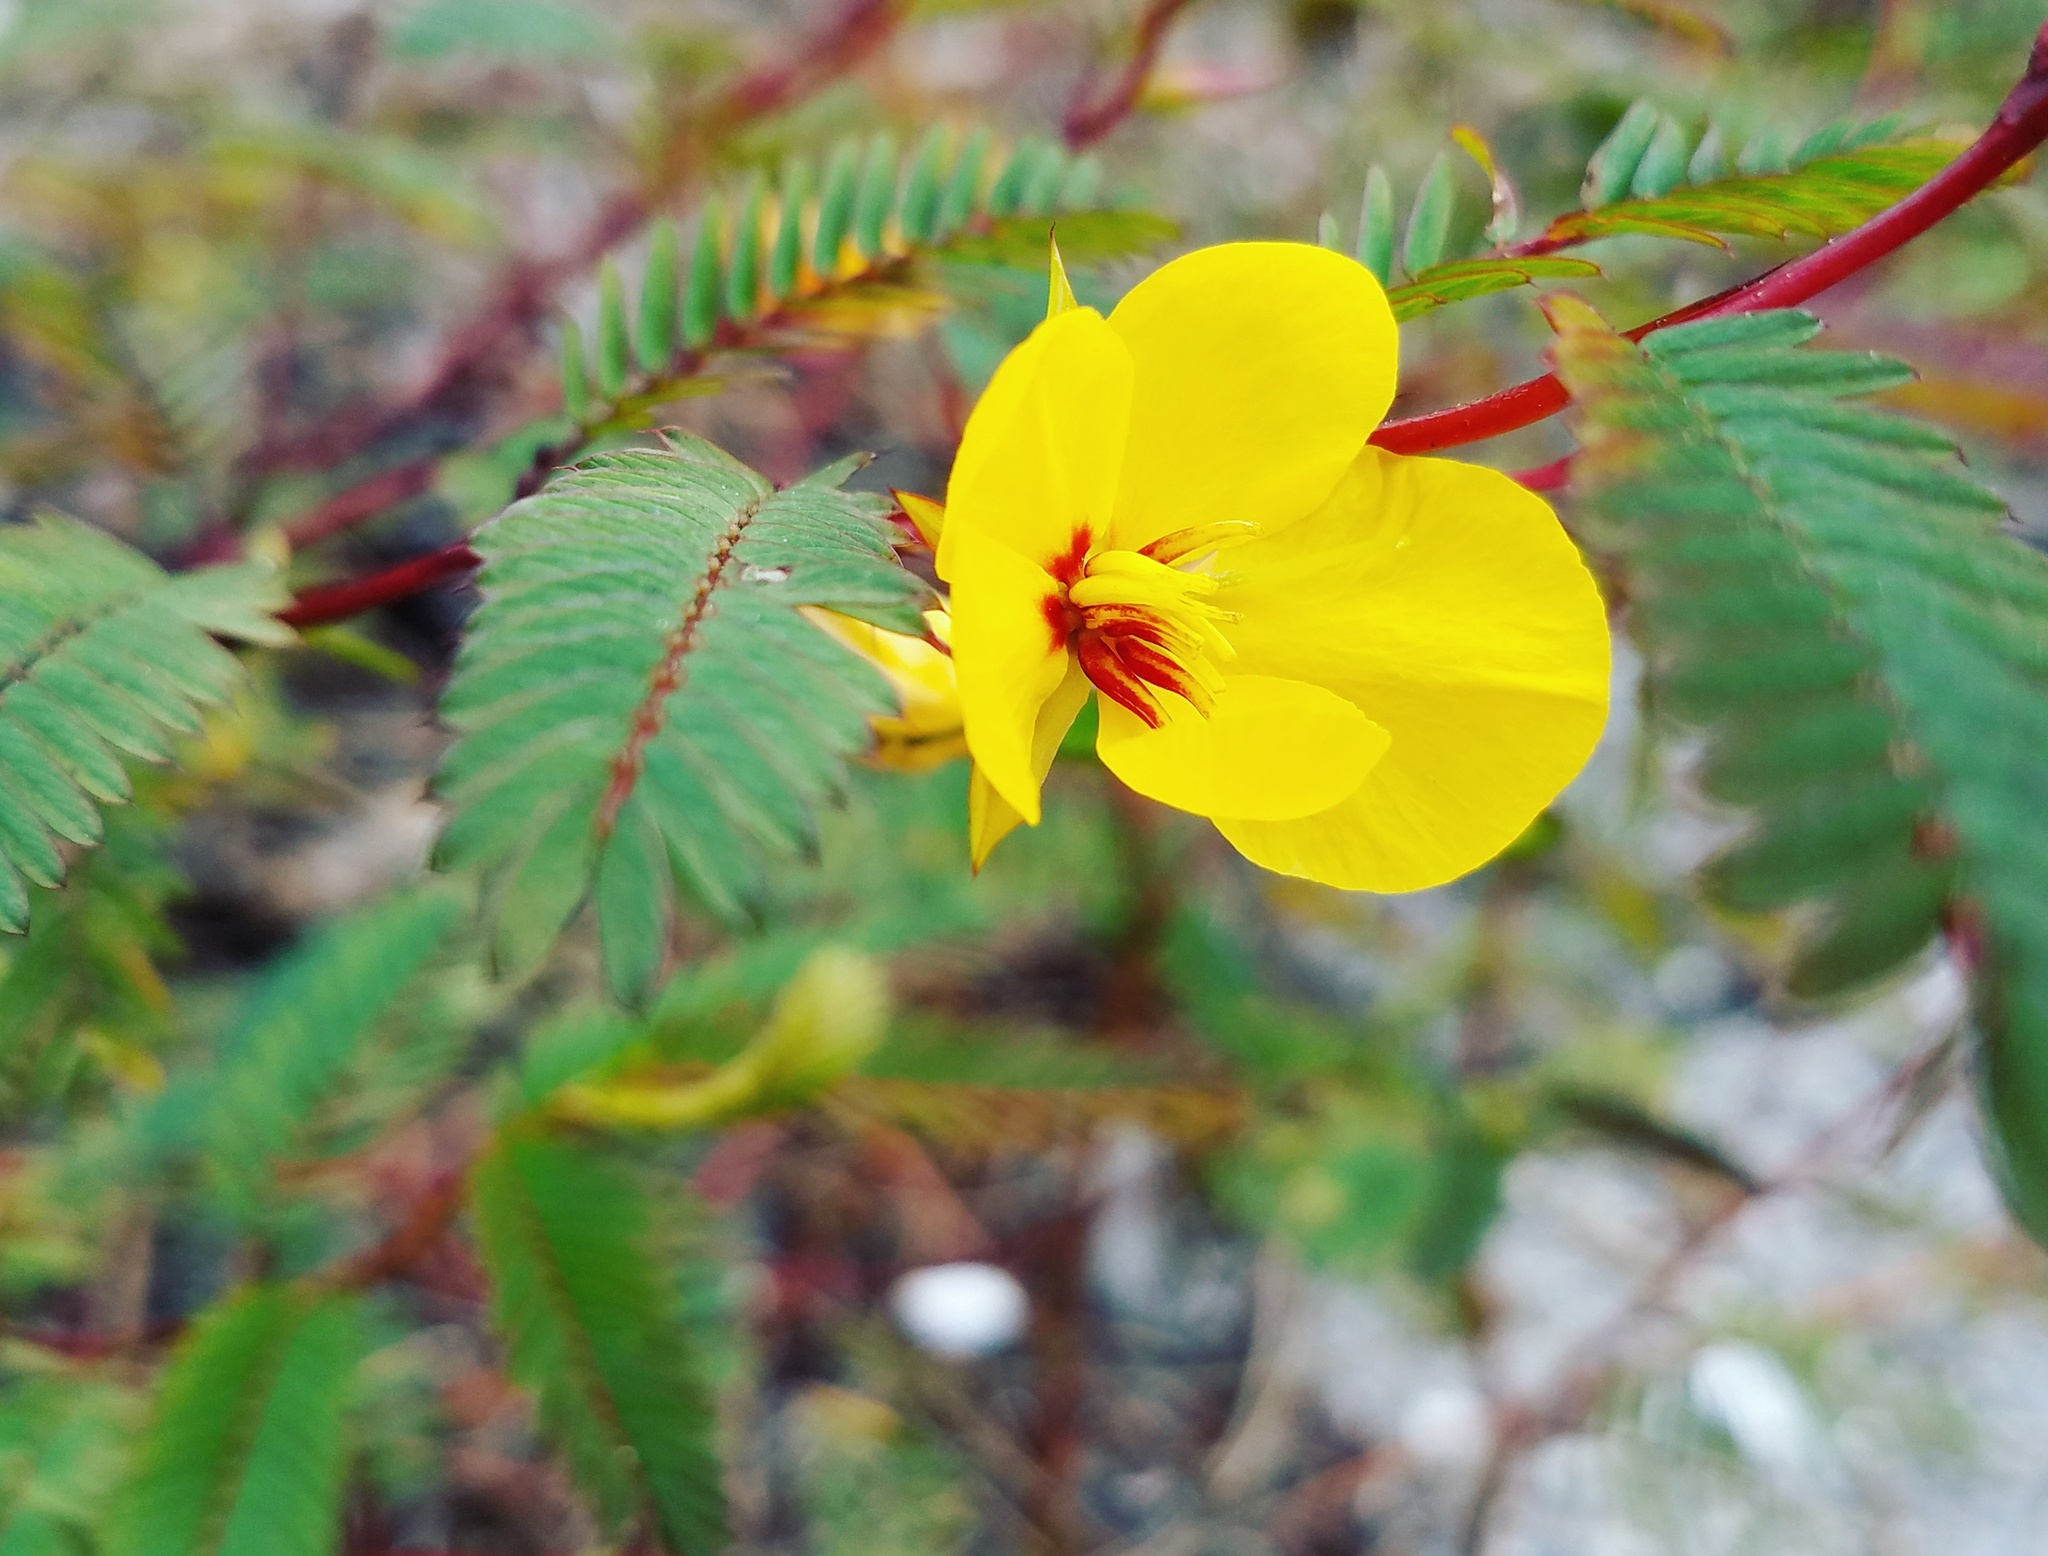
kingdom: Plantae
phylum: Tracheophyta
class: Magnoliopsida
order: Fabales
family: Fabaceae
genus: Chamaecrista
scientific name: Chamaecrista fasciculata
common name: Golden cassia
